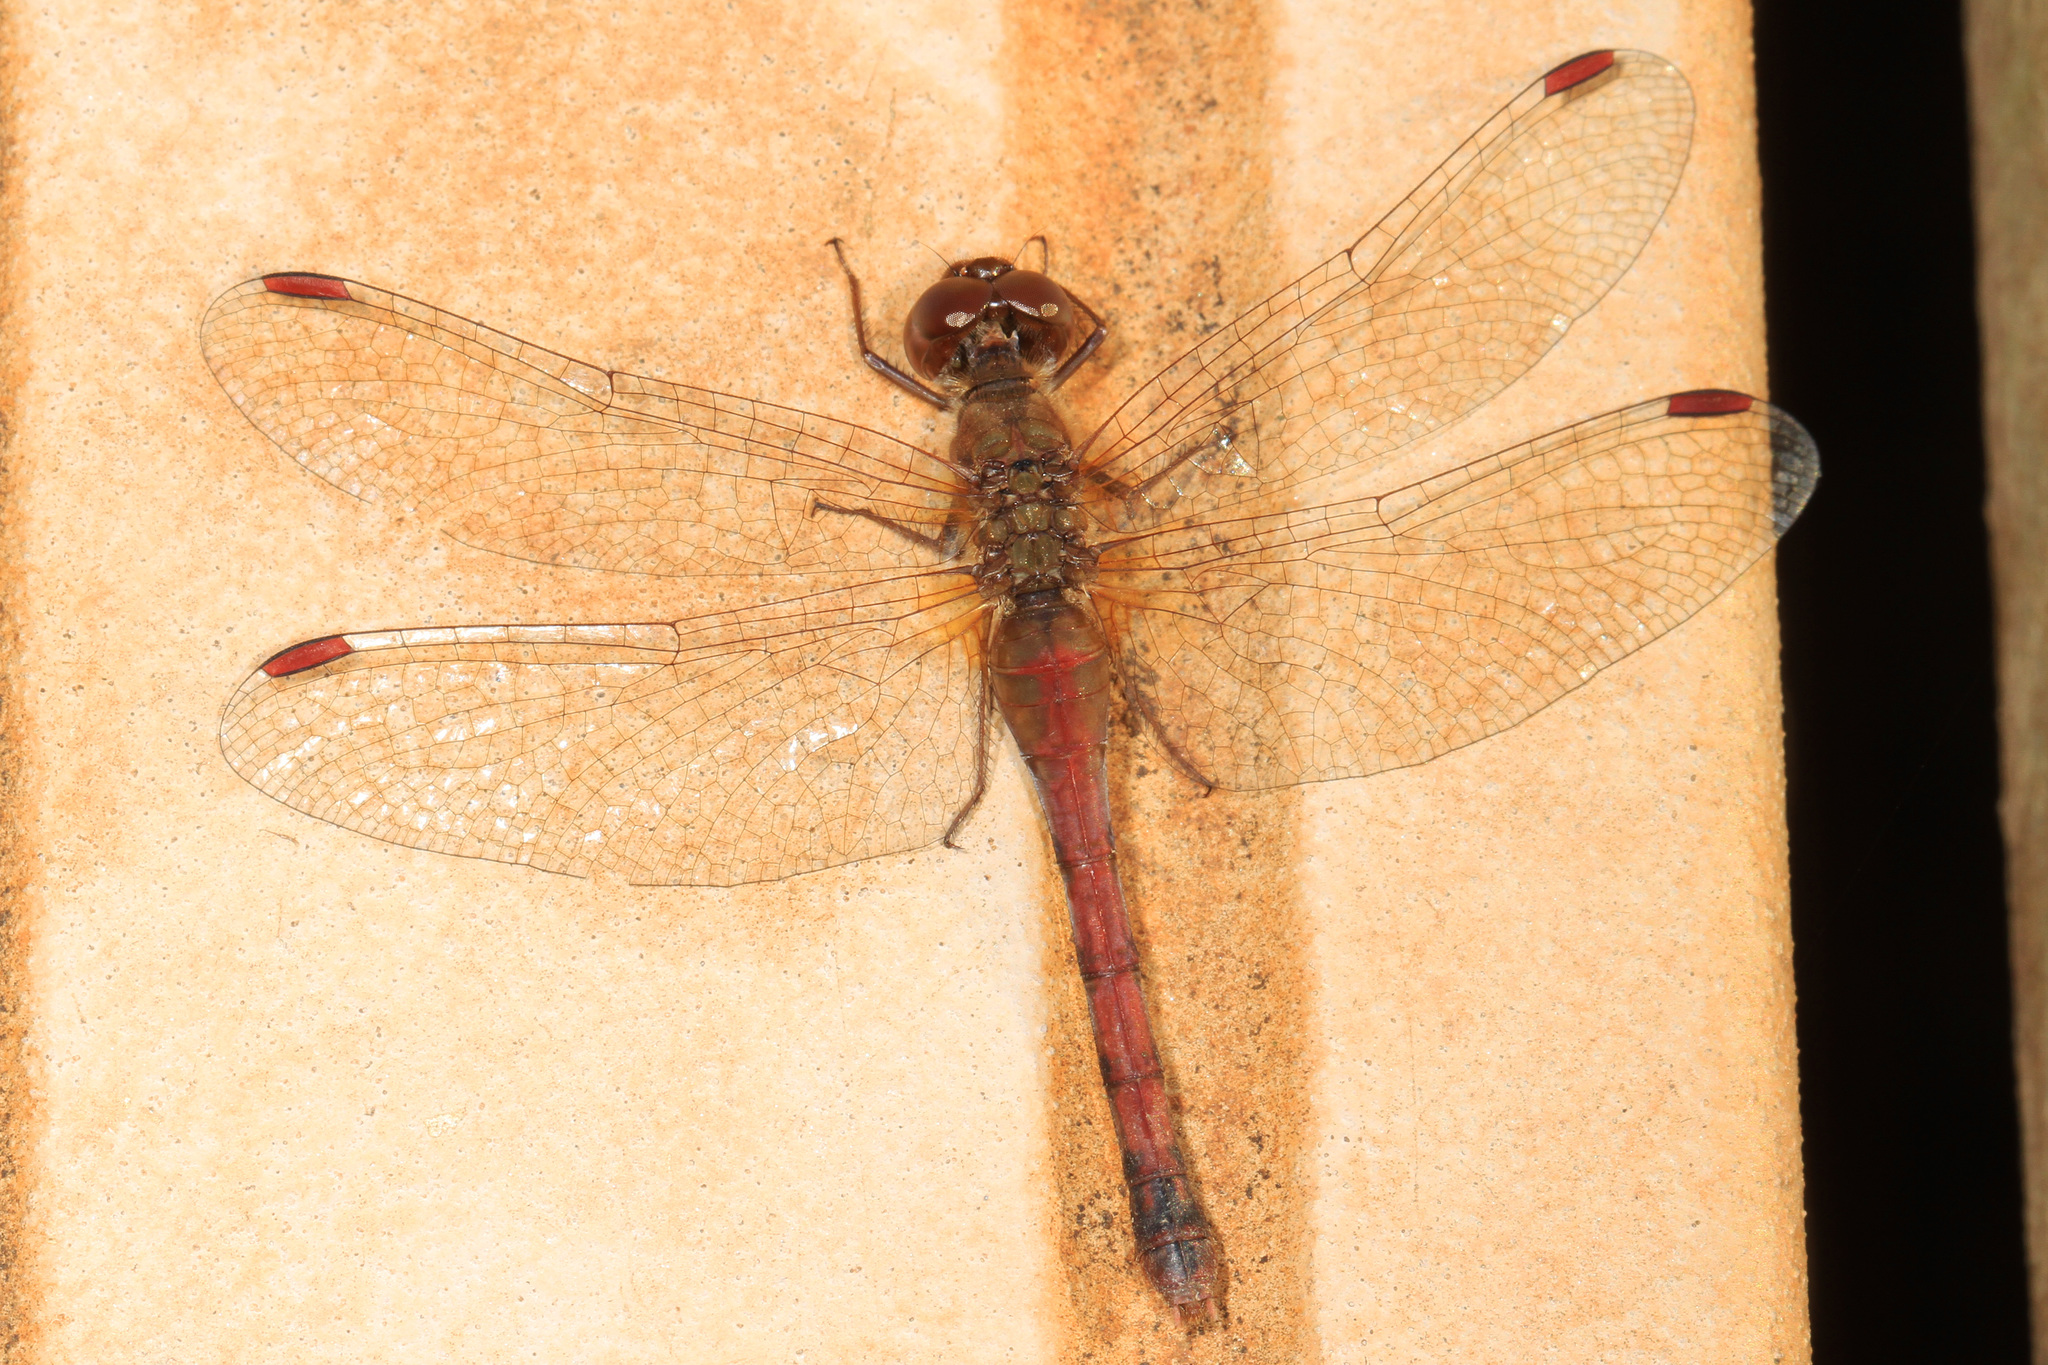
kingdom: Animalia
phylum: Arthropoda
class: Insecta
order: Odonata
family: Libellulidae
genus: Sympetrum
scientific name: Sympetrum vicinum
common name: Autumn meadowhawk
